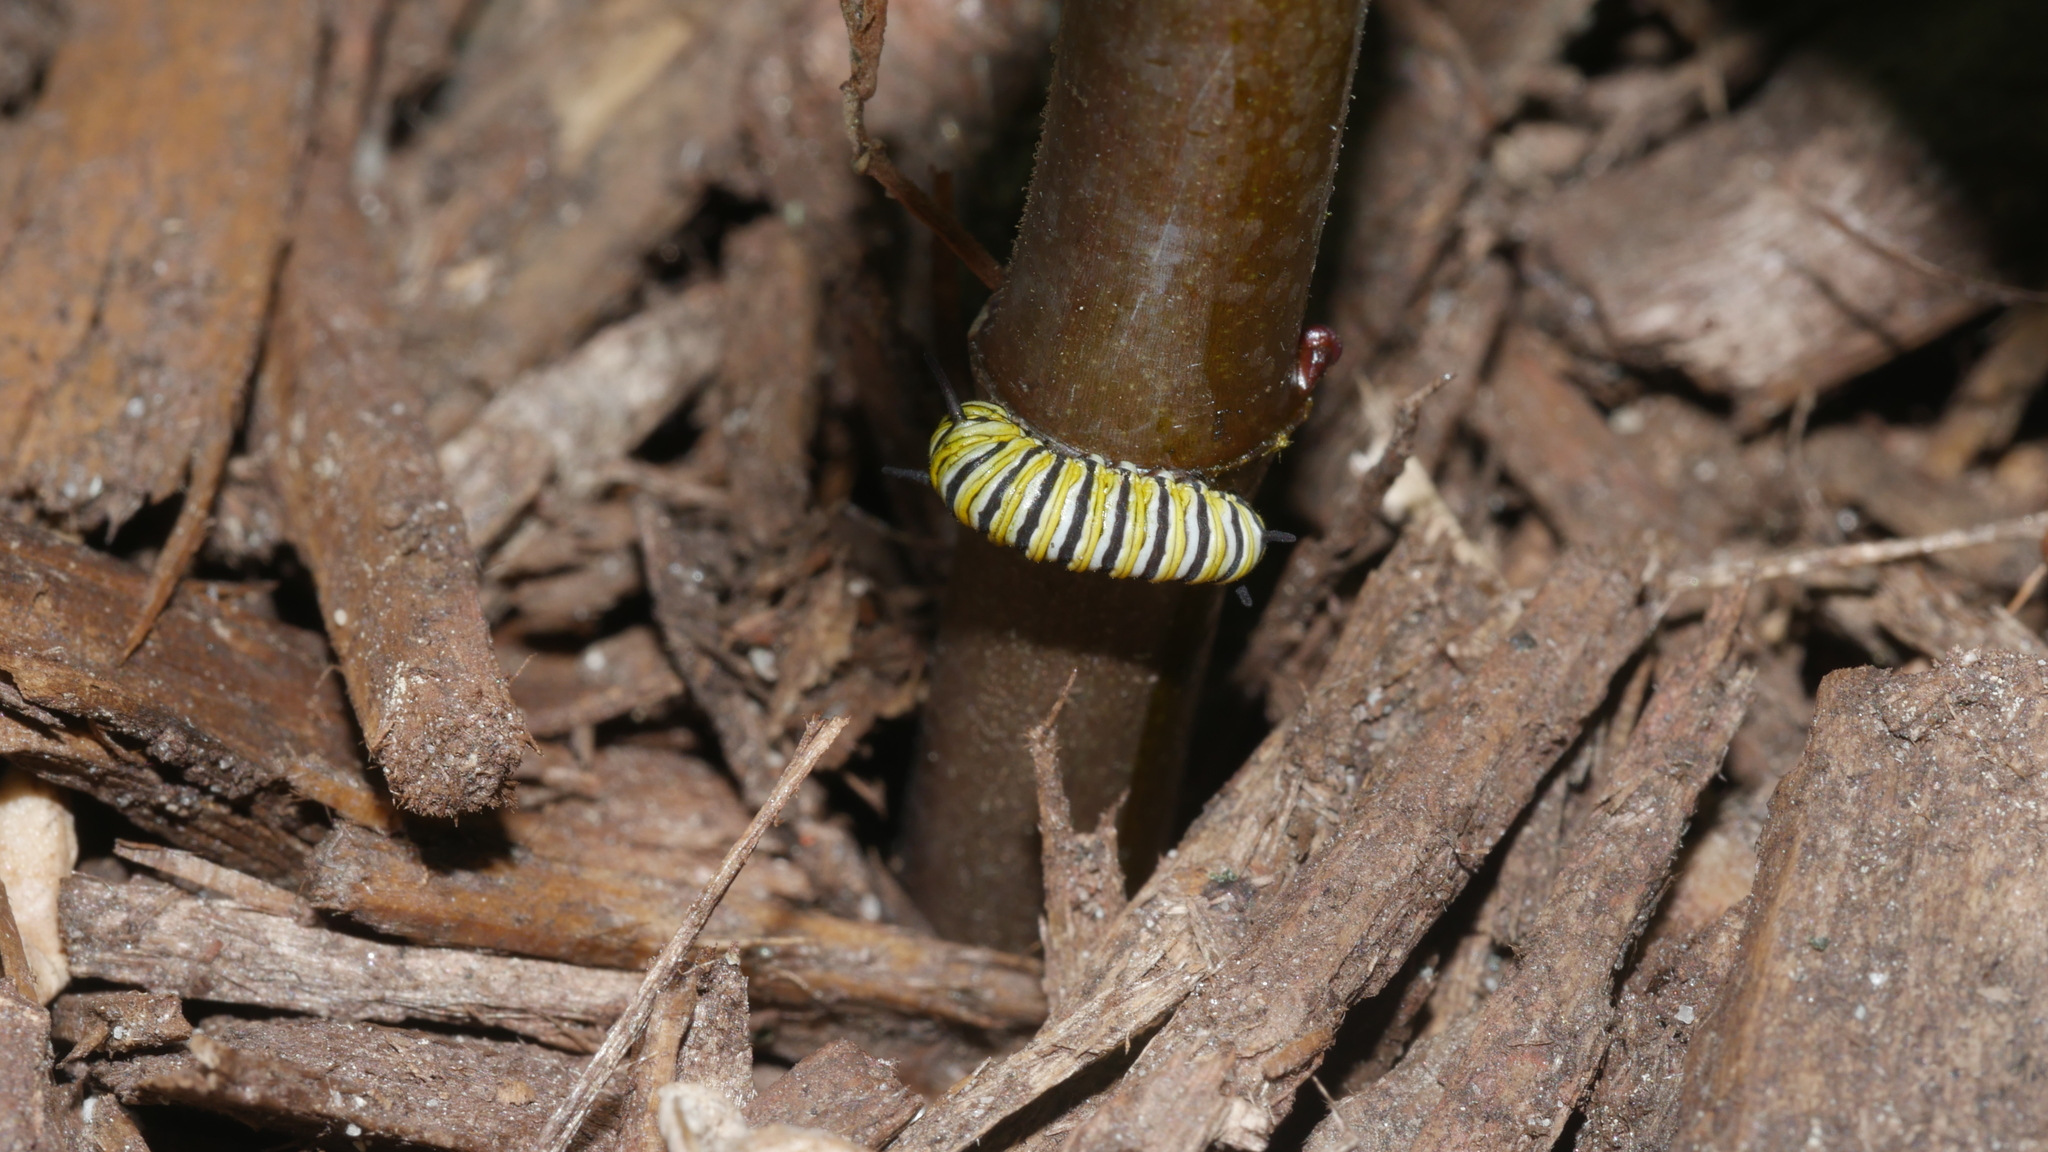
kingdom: Animalia
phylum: Arthropoda
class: Insecta
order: Lepidoptera
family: Nymphalidae
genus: Danaus
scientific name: Danaus plexippus
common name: Monarch
